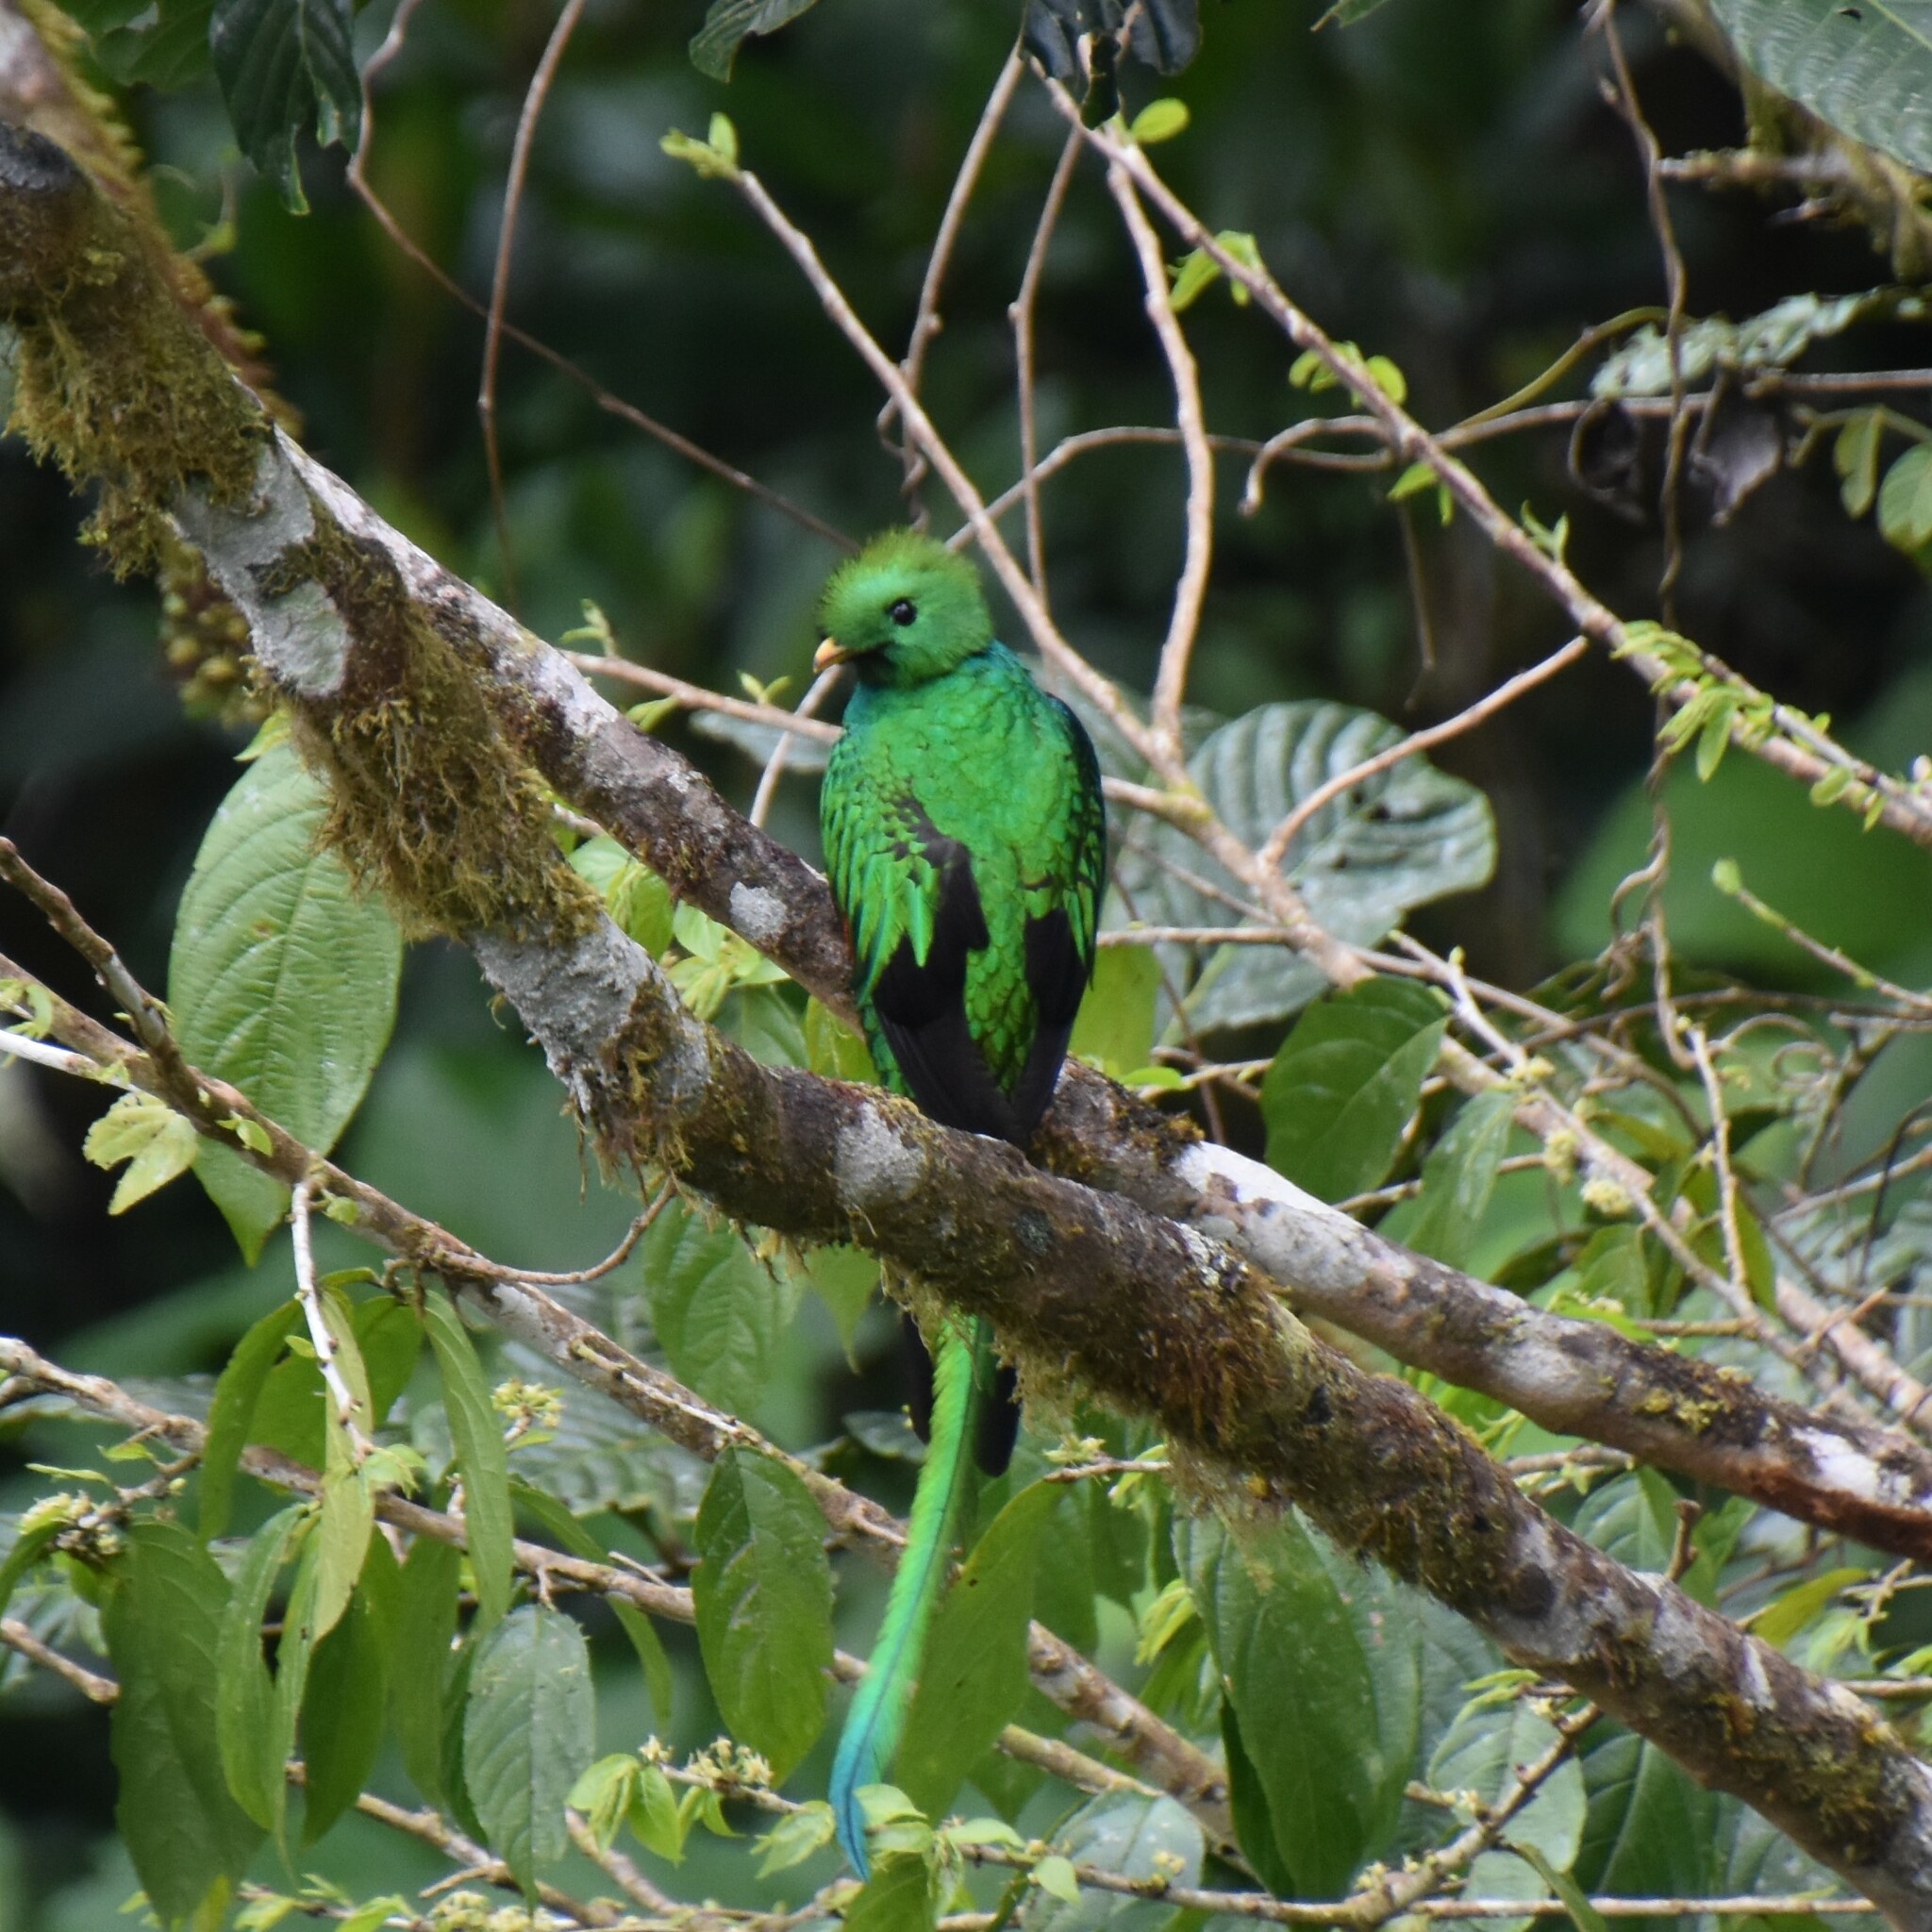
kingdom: Animalia
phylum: Chordata
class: Aves
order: Trogoniformes
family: Trogonidae
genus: Pharomachrus
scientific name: Pharomachrus mocinno
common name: Resplendent quetzal
